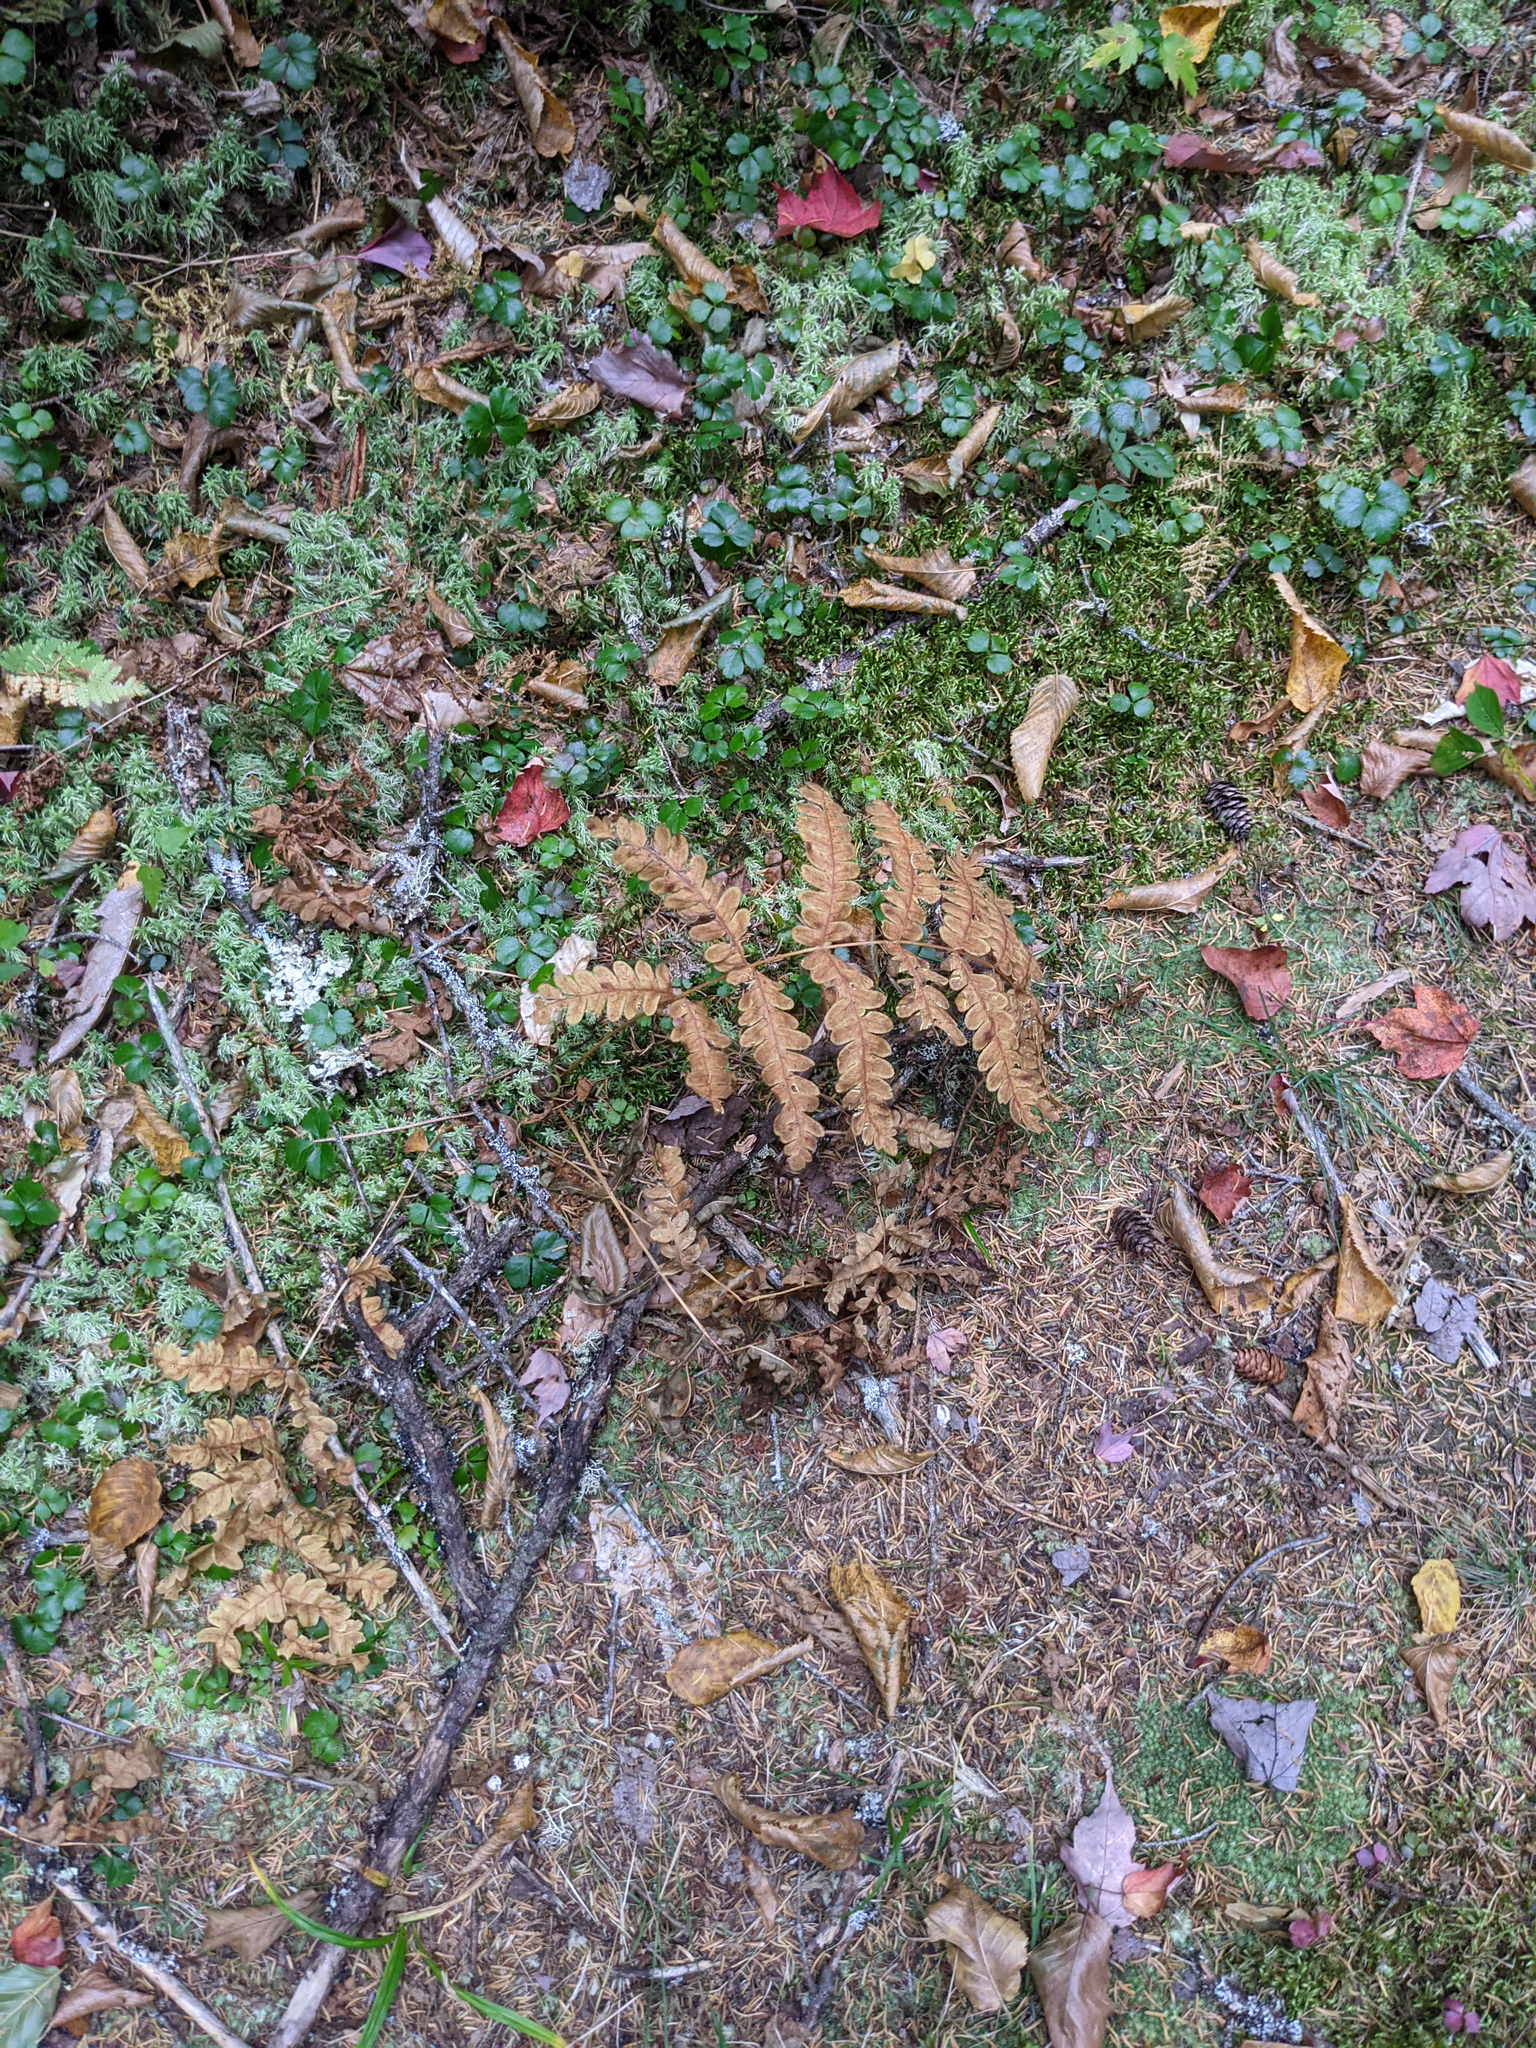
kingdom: Plantae
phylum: Tracheophyta
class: Polypodiopsida
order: Osmundales
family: Osmundaceae
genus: Claytosmunda
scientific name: Claytosmunda claytoniana
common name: Clayton's fern
